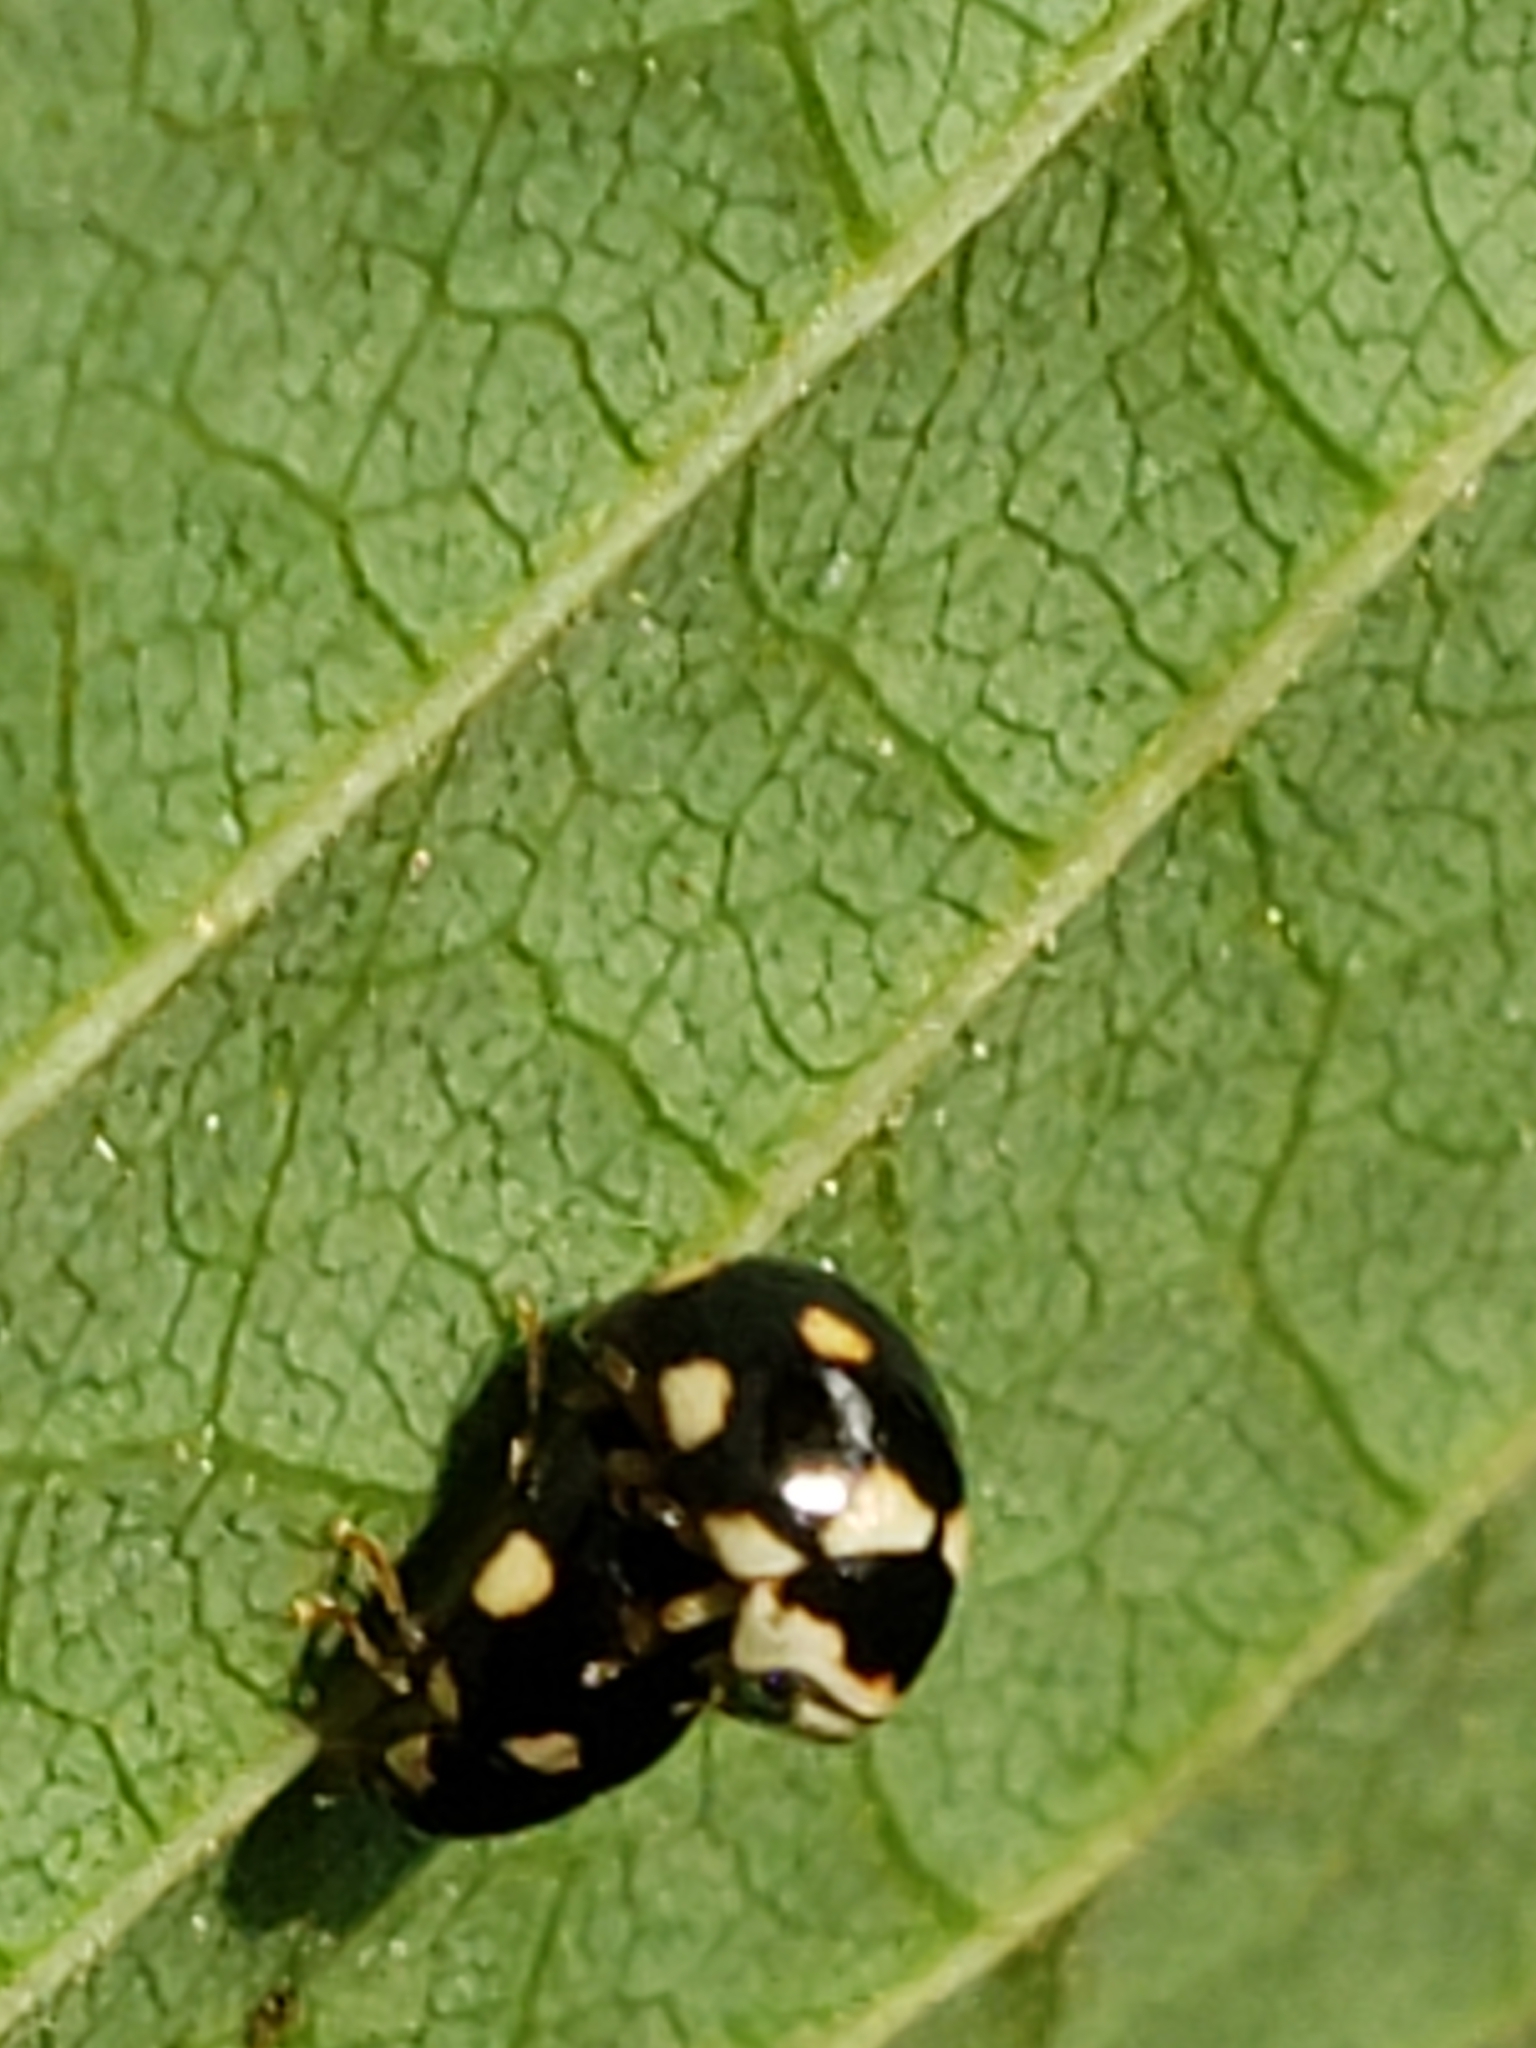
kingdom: Animalia
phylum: Arthropoda
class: Insecta
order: Coleoptera
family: Coccinellidae
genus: Brachiacantha
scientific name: Brachiacantha decempustulata
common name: Ten-spotted spurleg lady beetle
